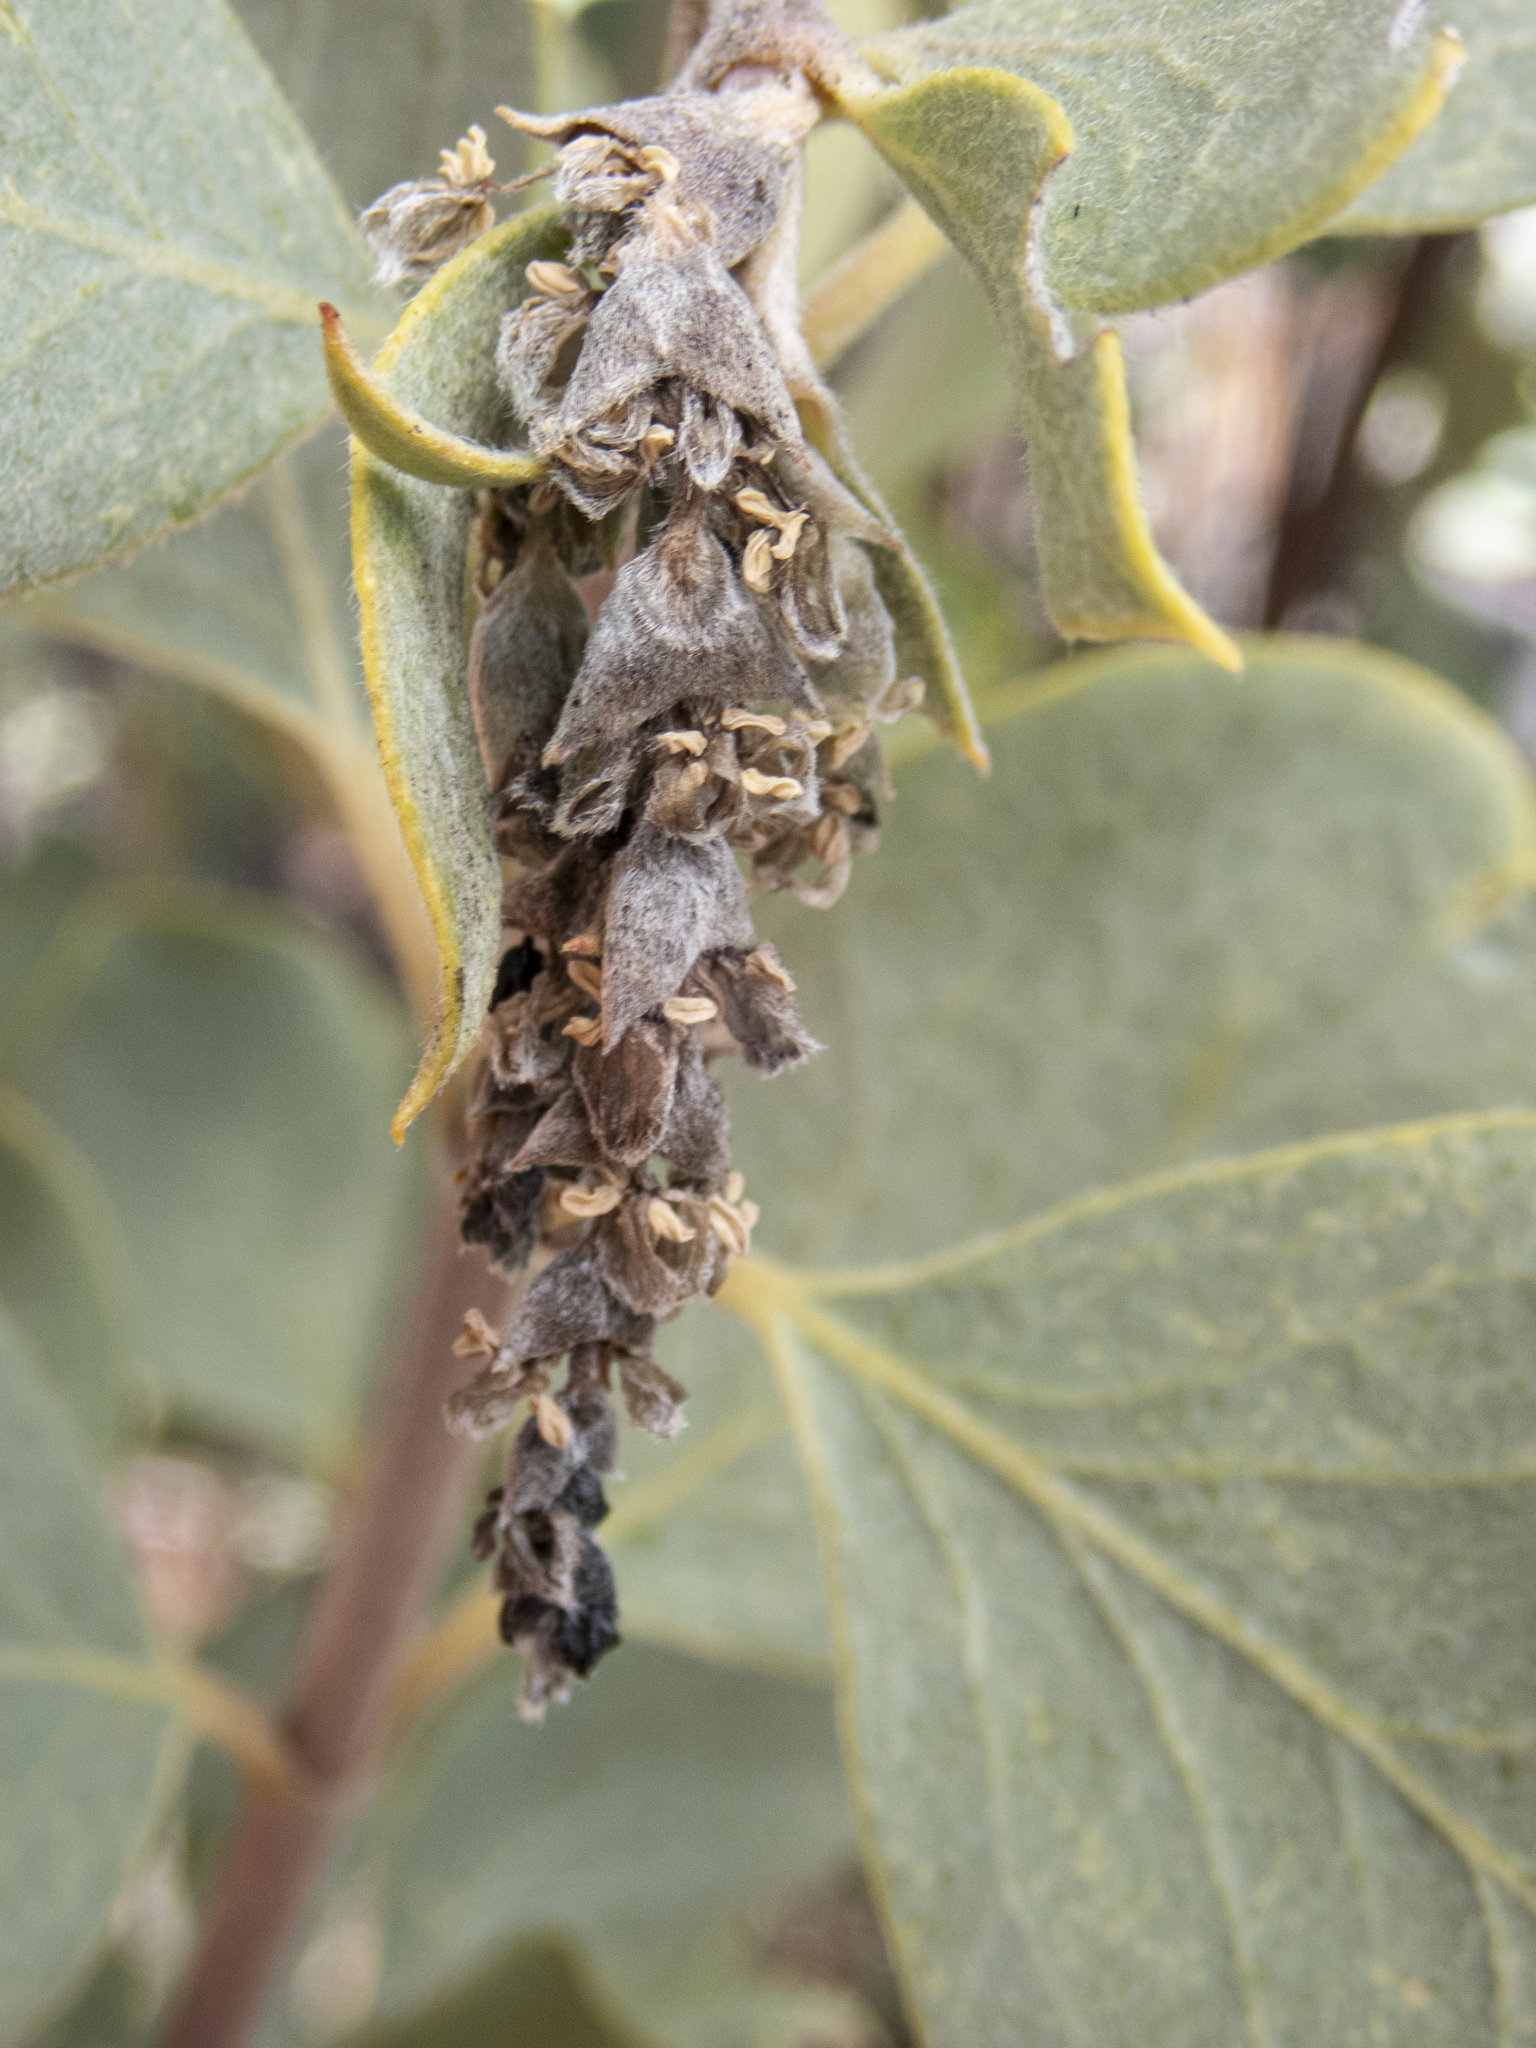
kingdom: Plantae
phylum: Tracheophyta
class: Magnoliopsida
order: Garryales
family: Garryaceae
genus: Garrya
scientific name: Garrya flavescens
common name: Ashy silk-tassel
